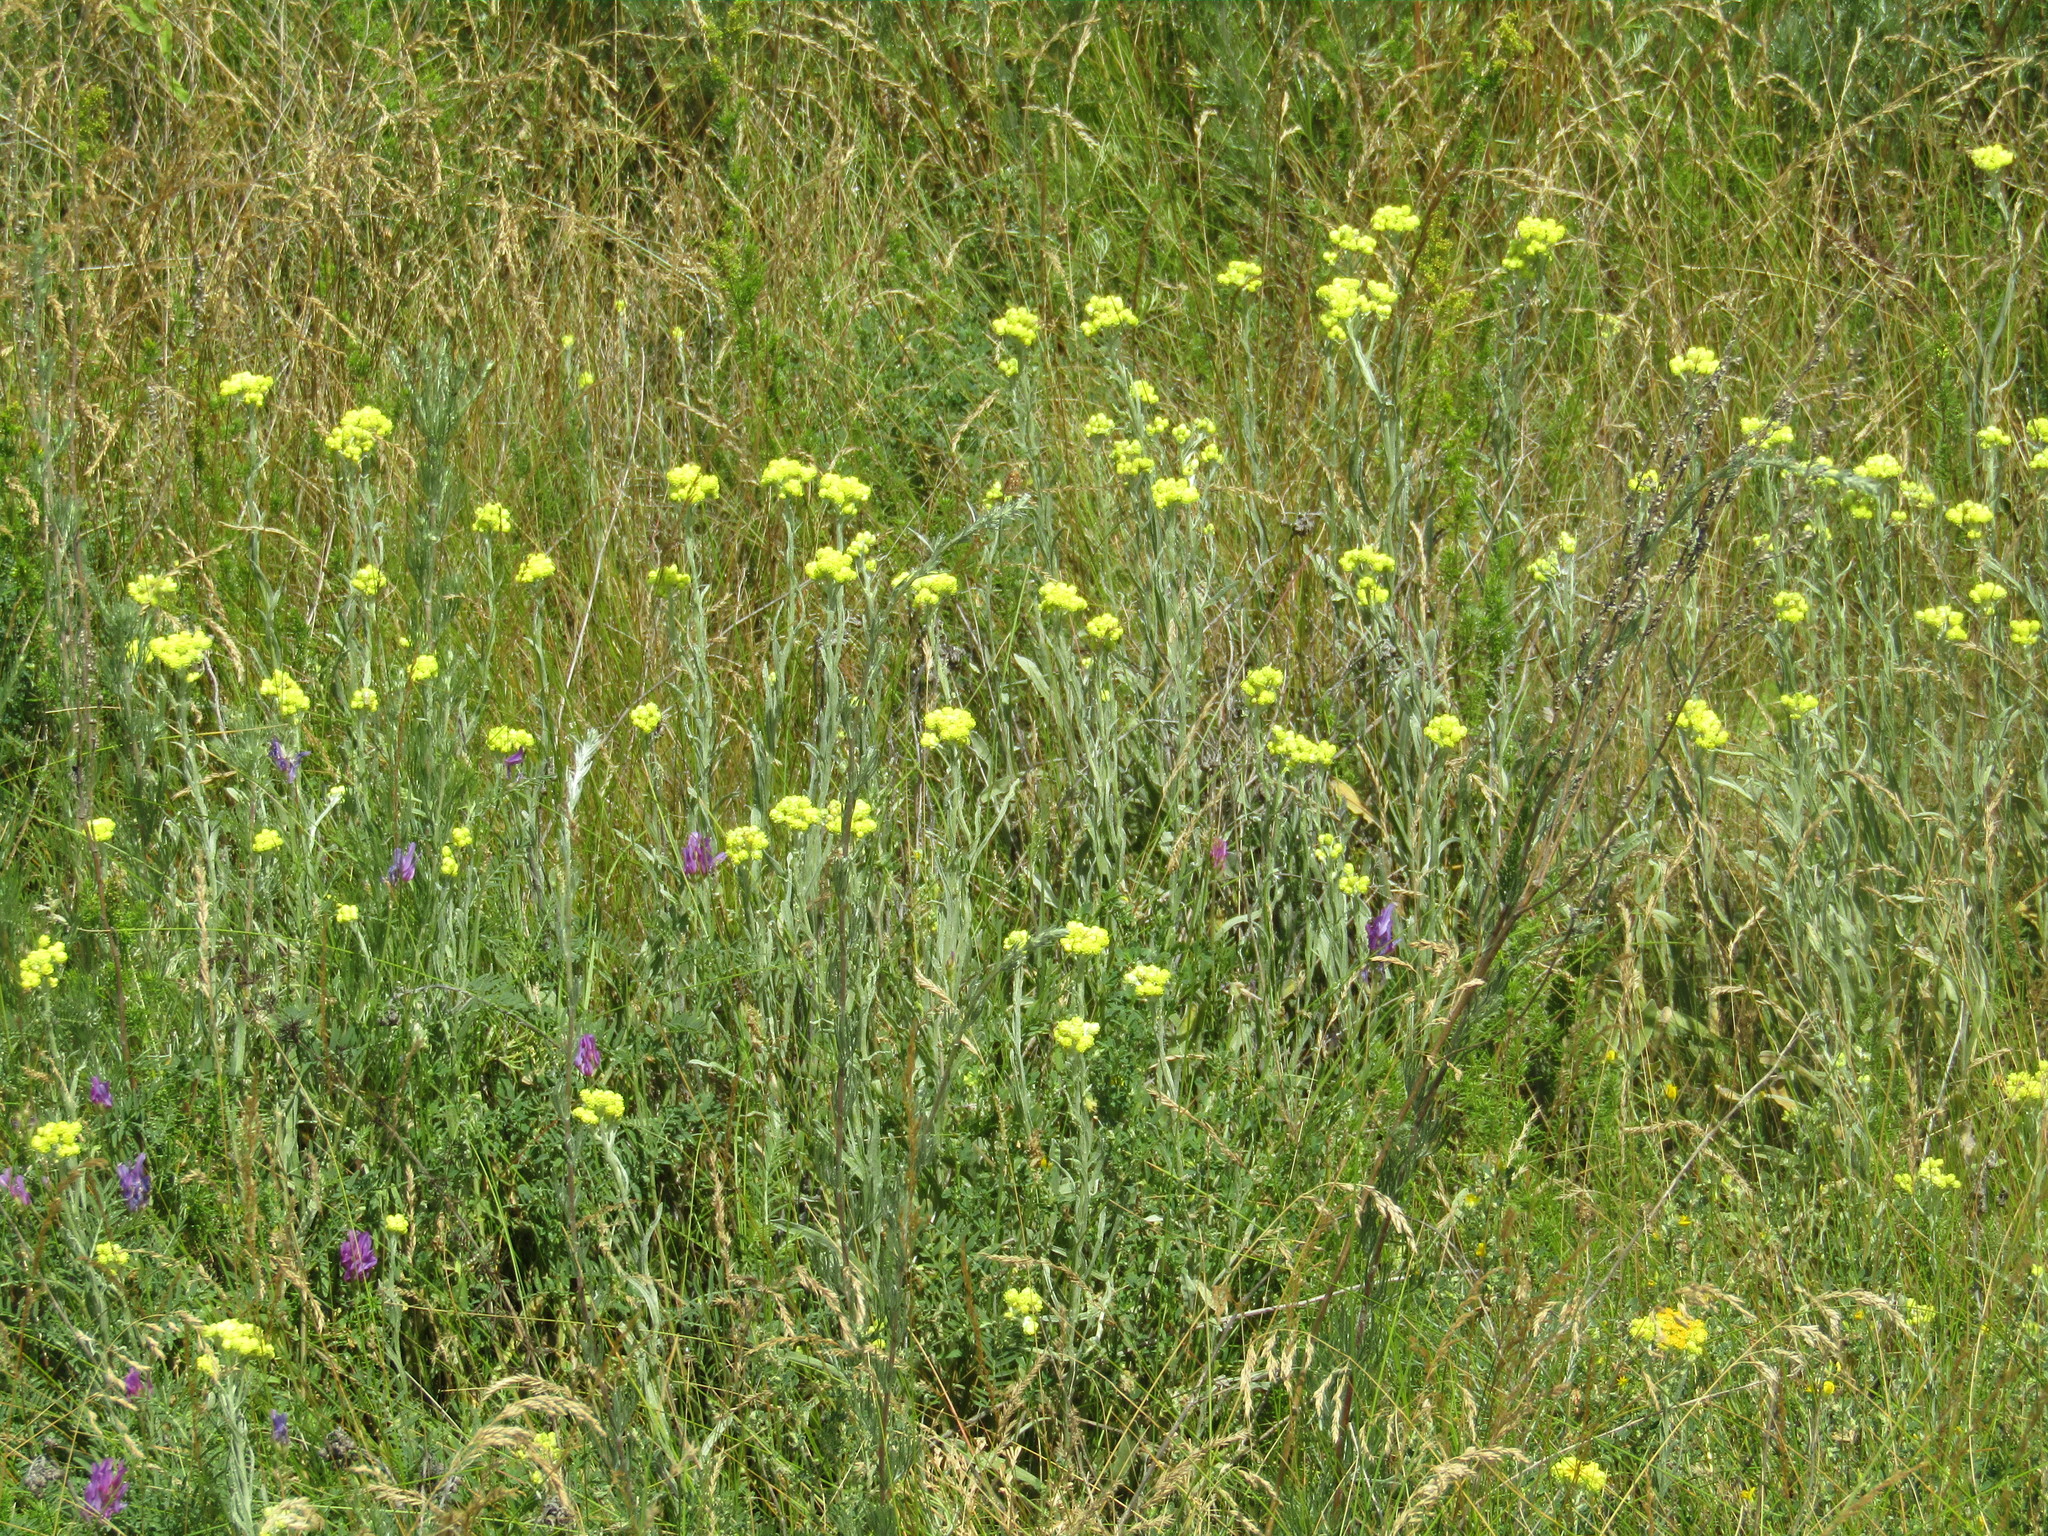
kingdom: Plantae
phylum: Tracheophyta
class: Magnoliopsida
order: Asterales
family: Asteraceae
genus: Helichrysum
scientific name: Helichrysum arenarium
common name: Strawflower
